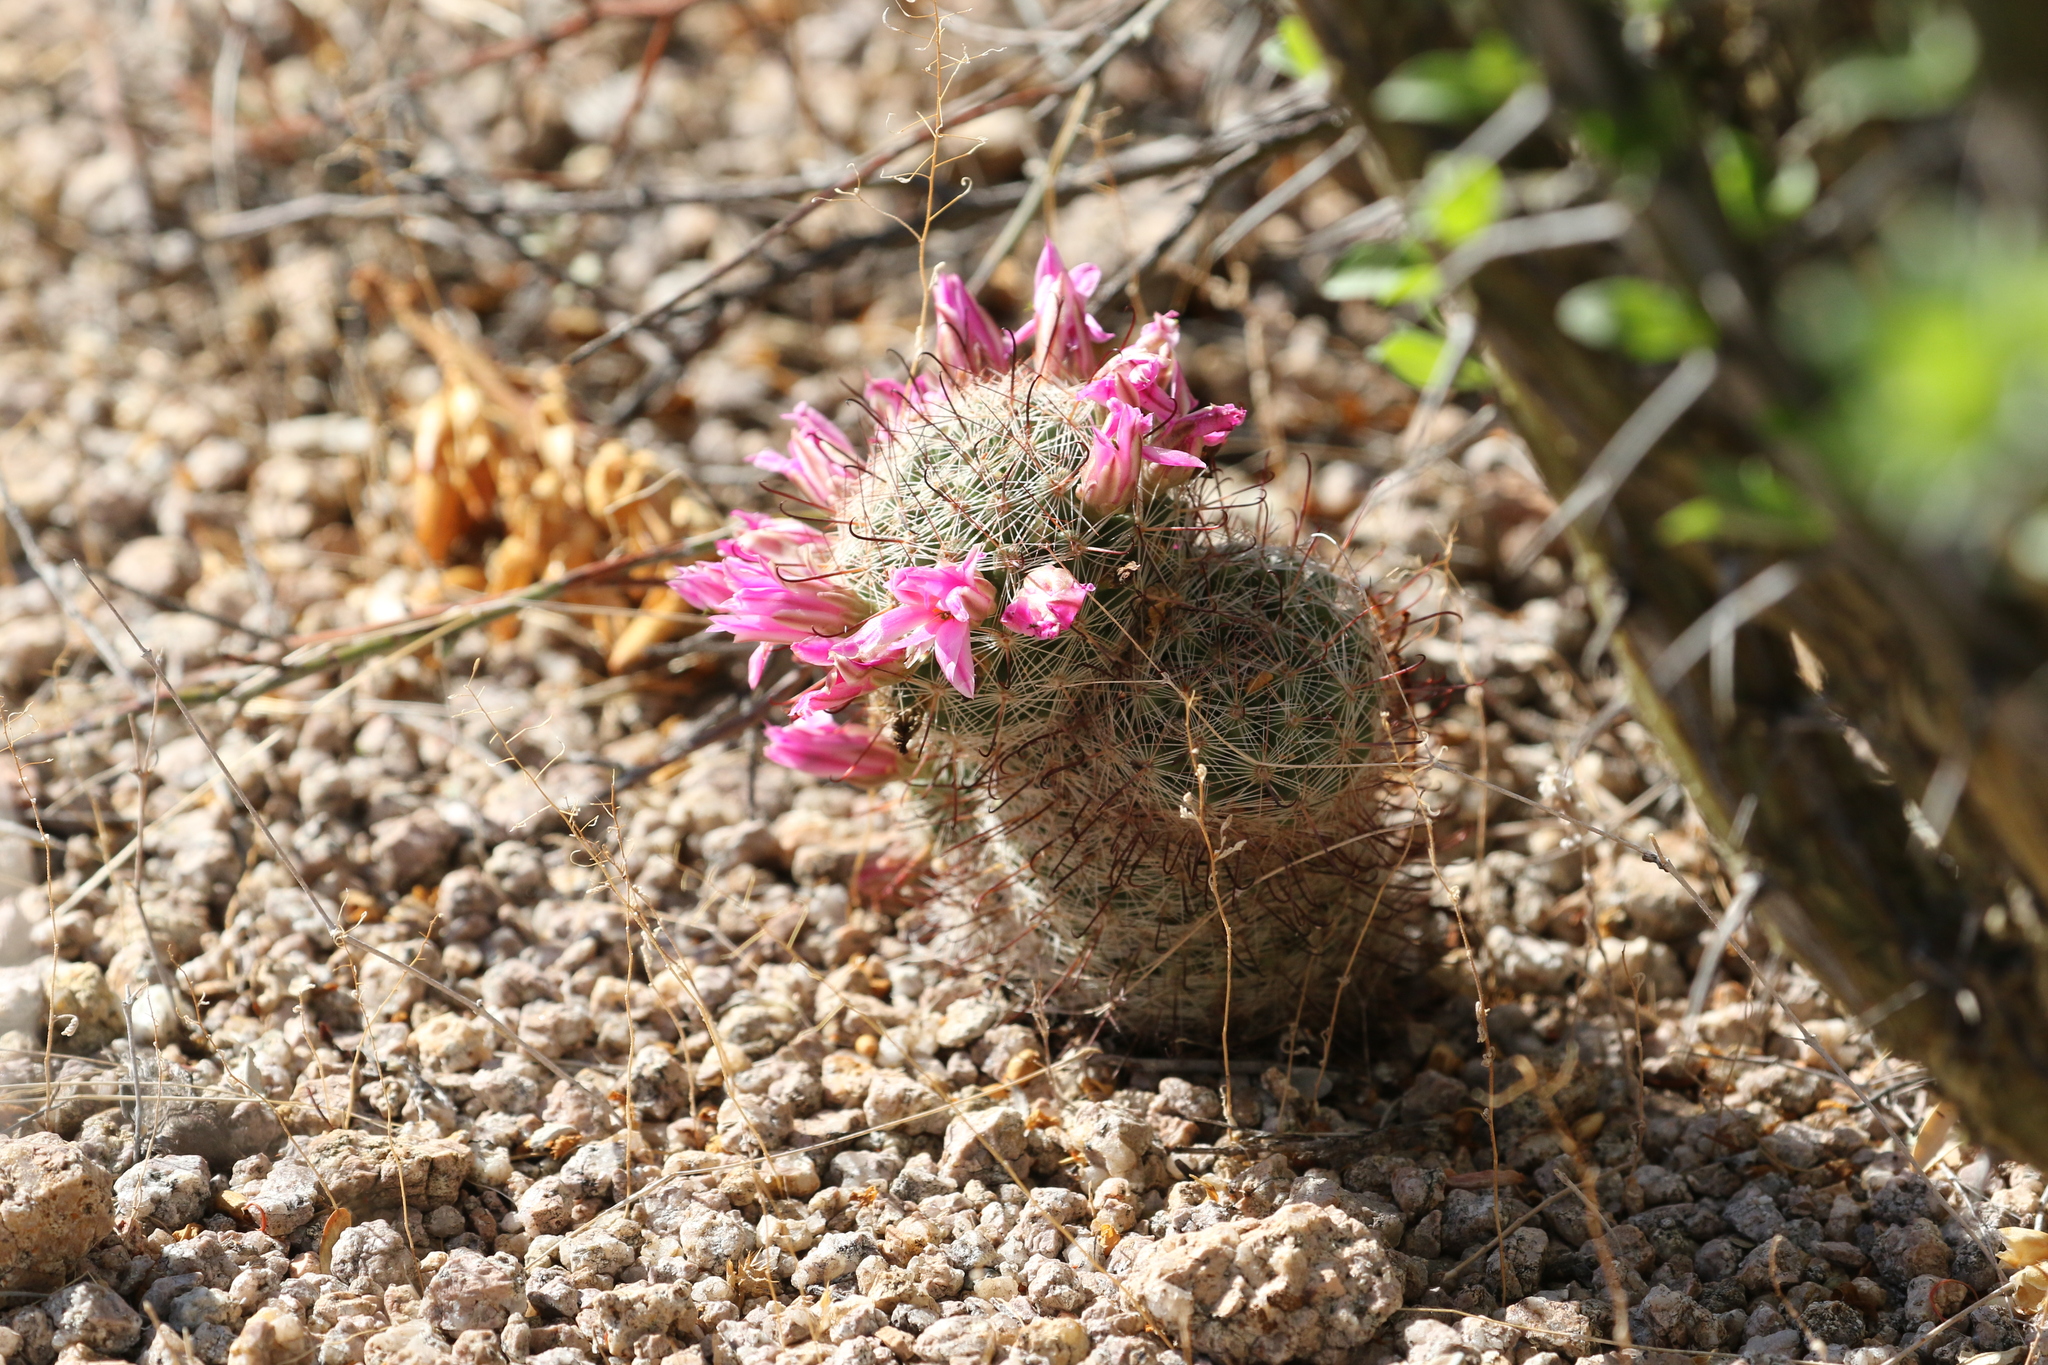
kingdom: Plantae
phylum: Tracheophyta
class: Magnoliopsida
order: Caryophyllales
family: Cactaceae
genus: Cochemiea
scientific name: Cochemiea grahamii
